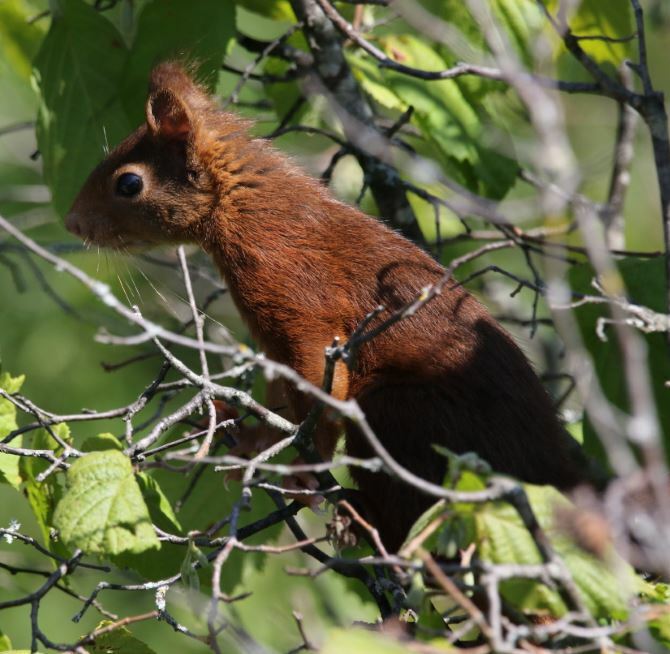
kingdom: Animalia
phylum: Chordata
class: Mammalia
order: Rodentia
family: Sciuridae
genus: Sciurus
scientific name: Sciurus vulgaris
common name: Eurasian red squirrel
